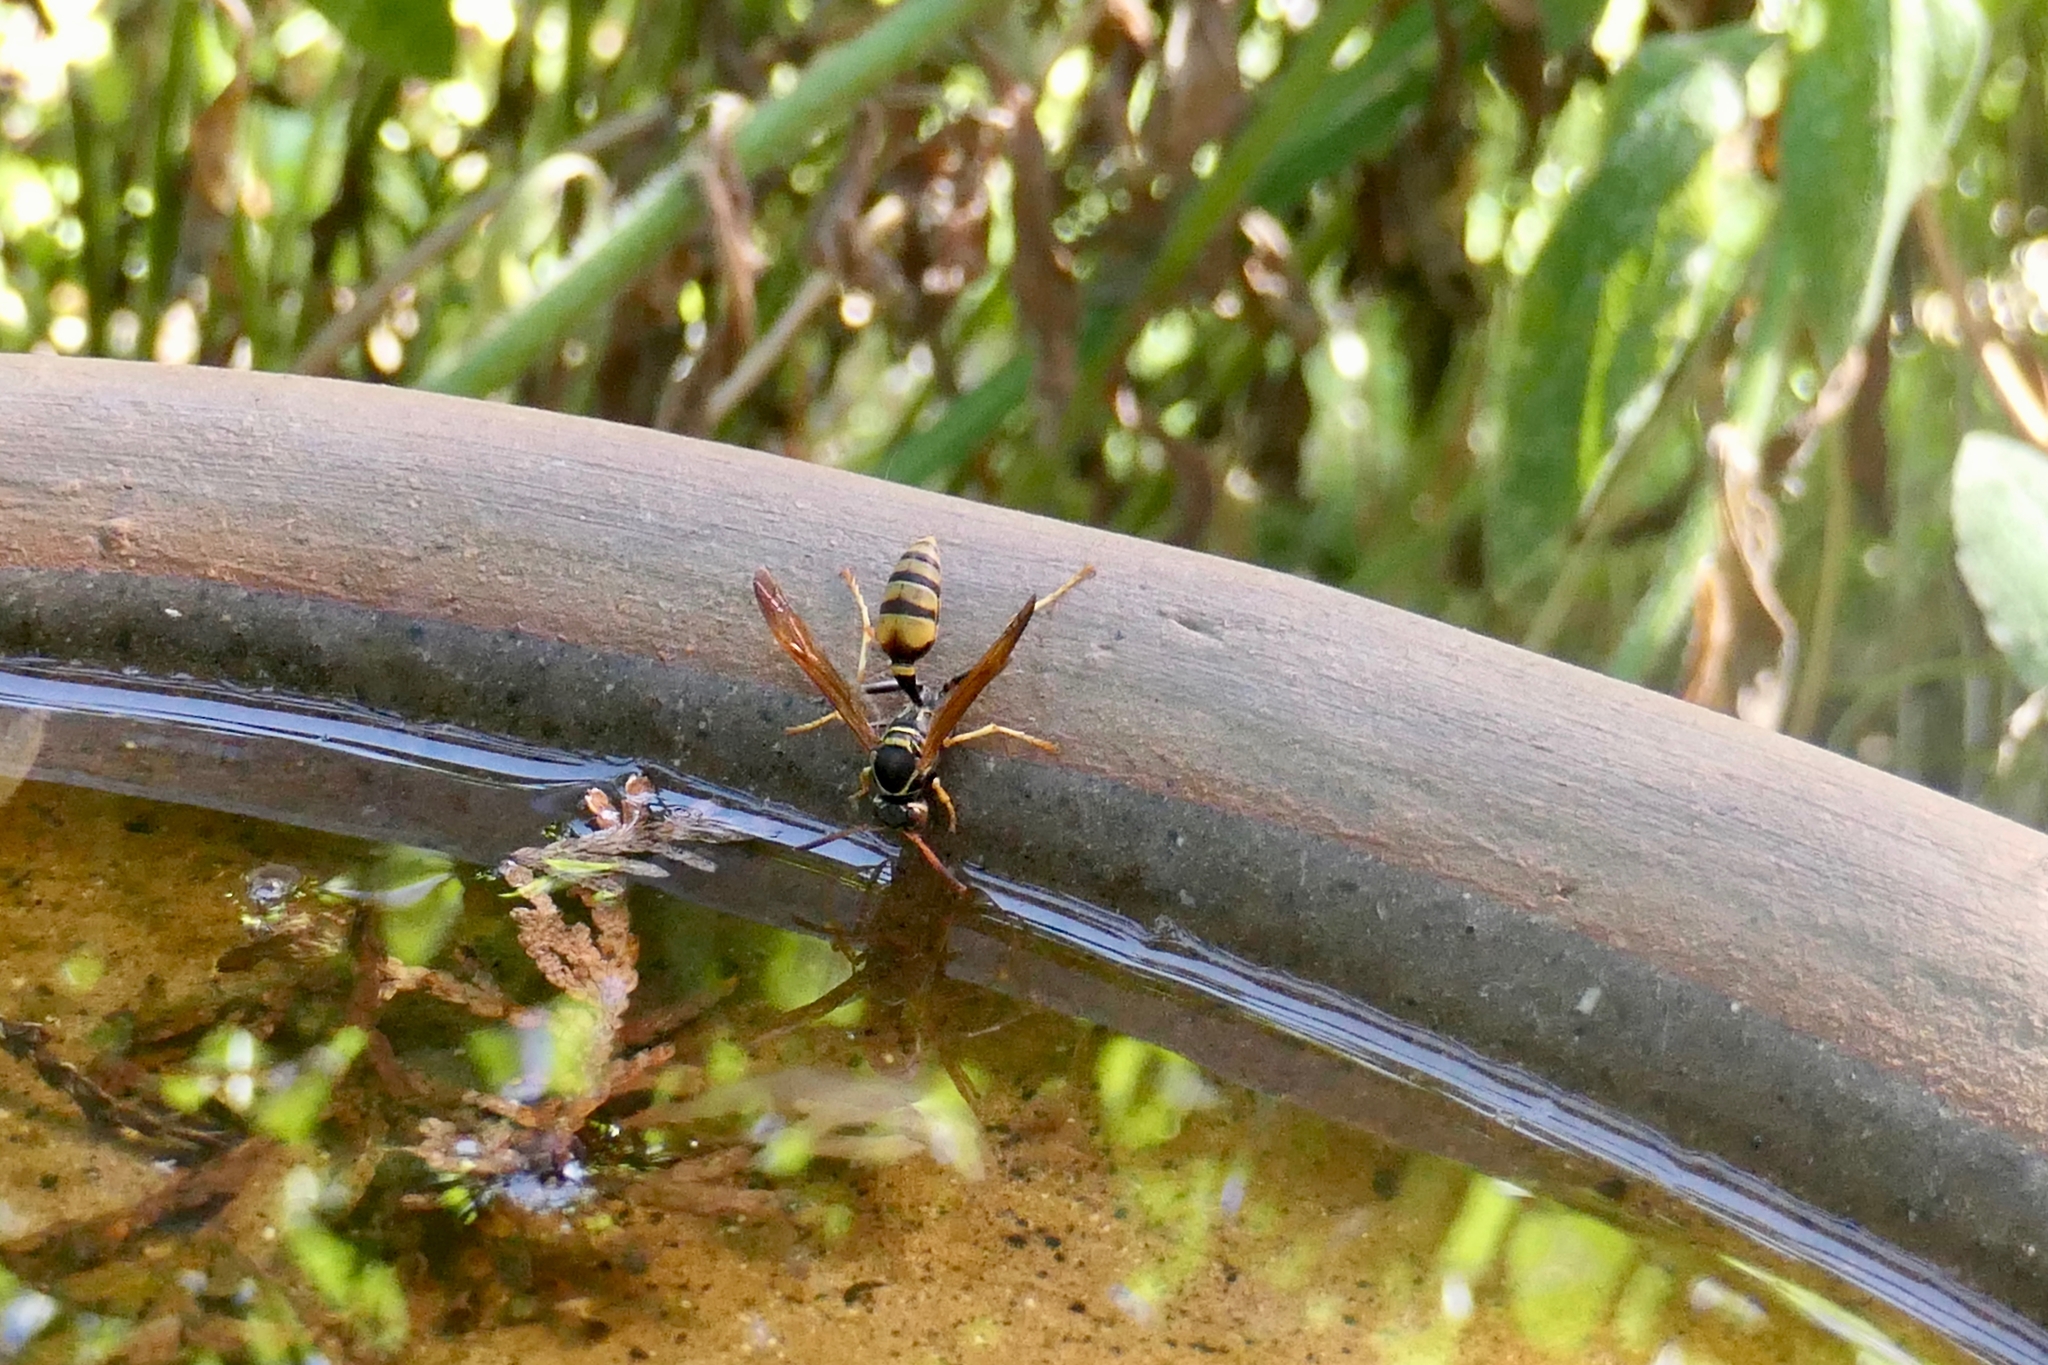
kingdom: Animalia
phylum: Arthropoda
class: Insecta
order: Hymenoptera
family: Vespidae
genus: Mischocyttarus
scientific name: Mischocyttarus flavitarsis
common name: Wasp
